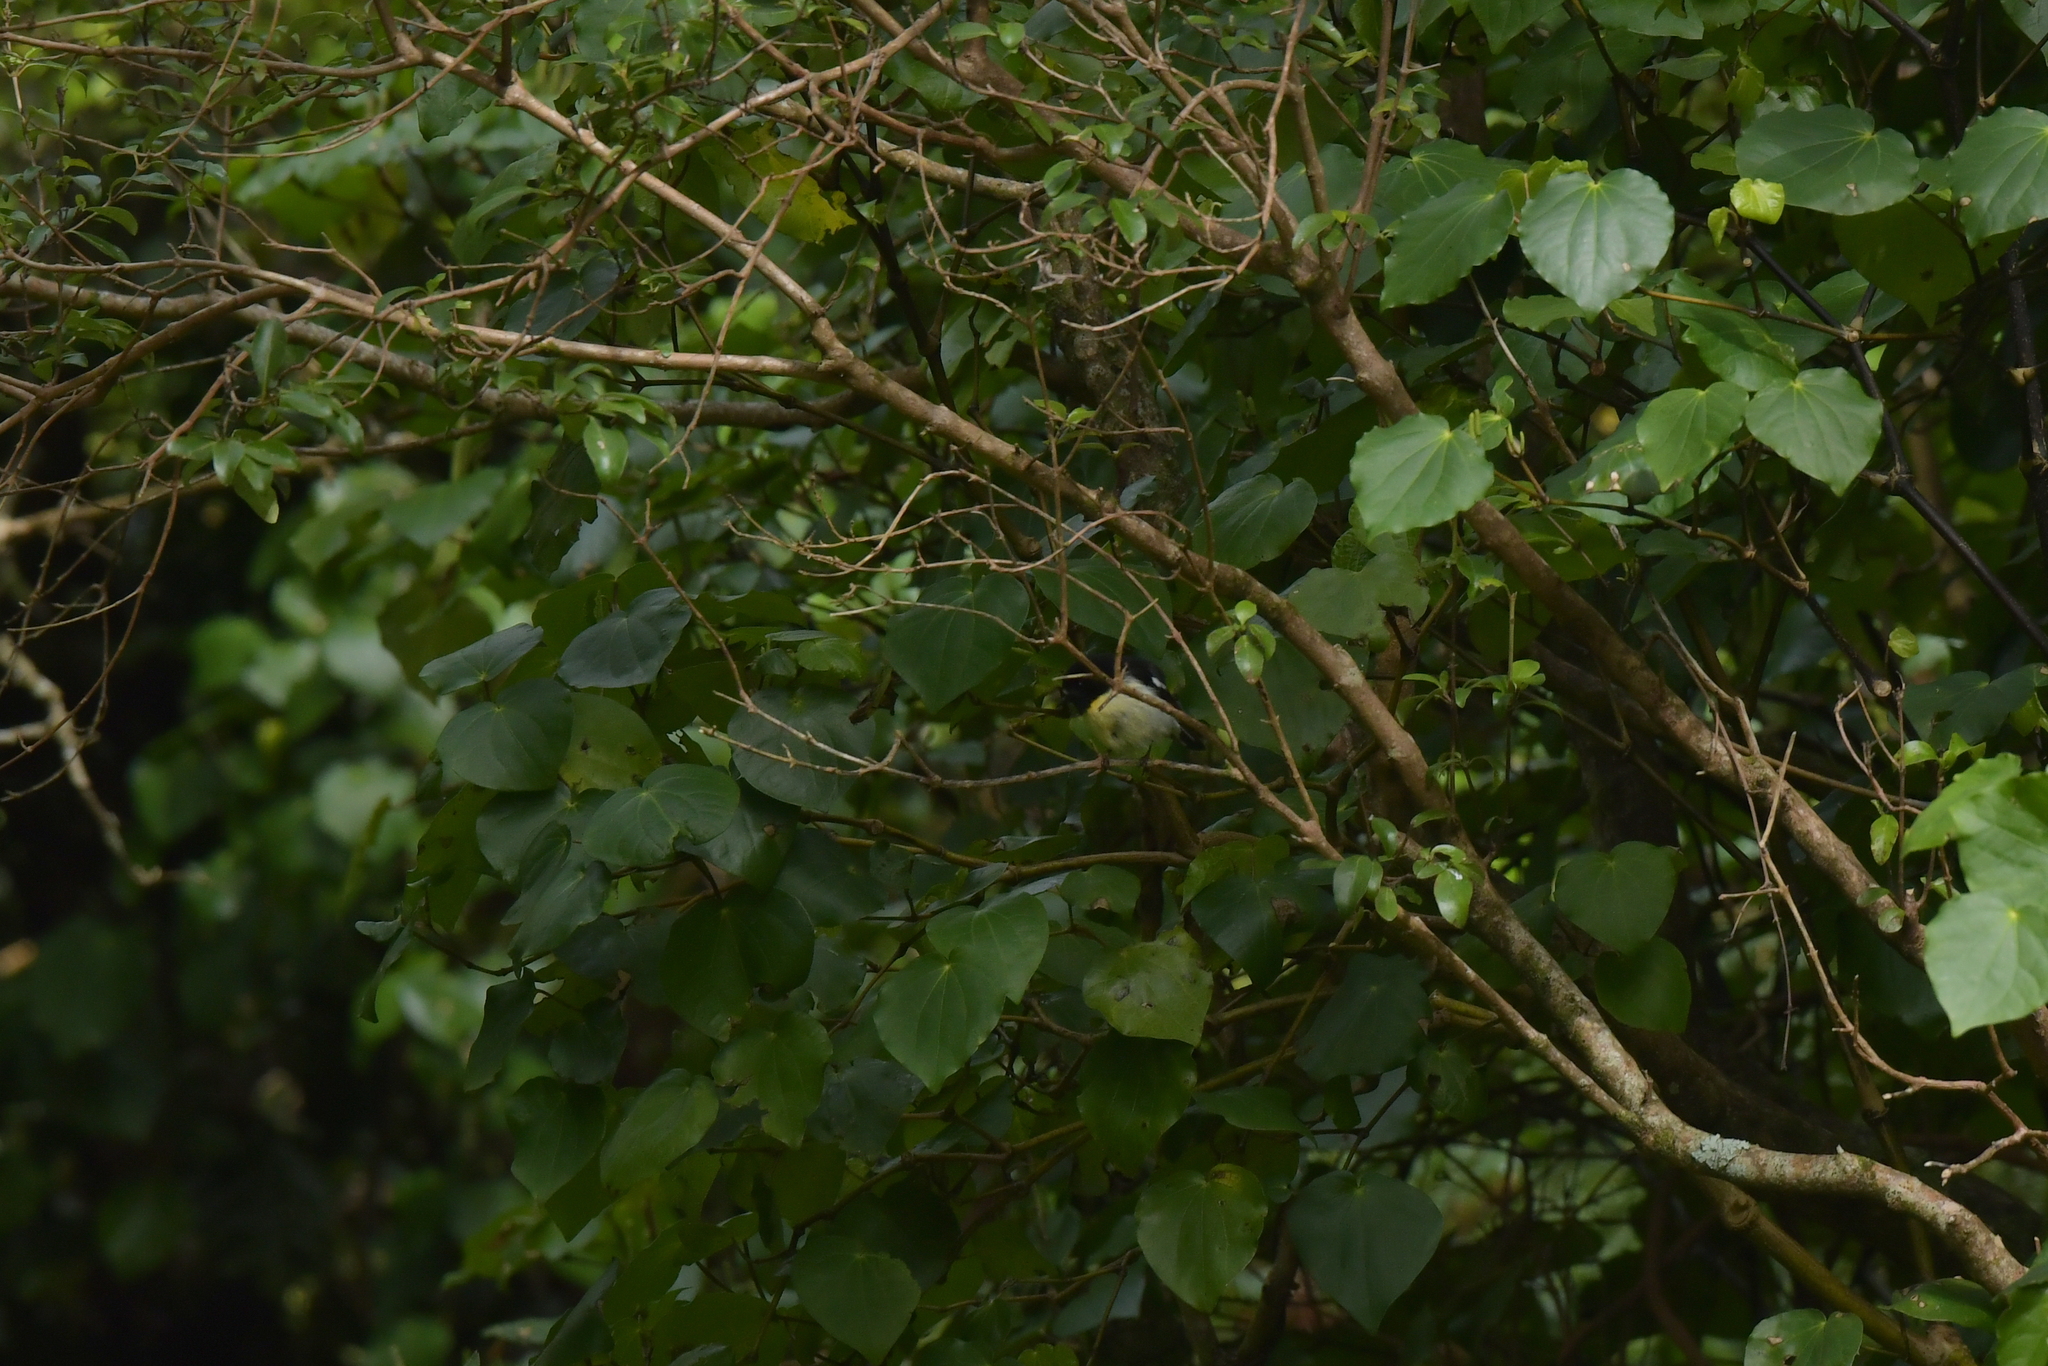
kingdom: Animalia
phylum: Chordata
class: Aves
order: Passeriformes
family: Petroicidae
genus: Petroica
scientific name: Petroica macrocephala
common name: Tomtit
